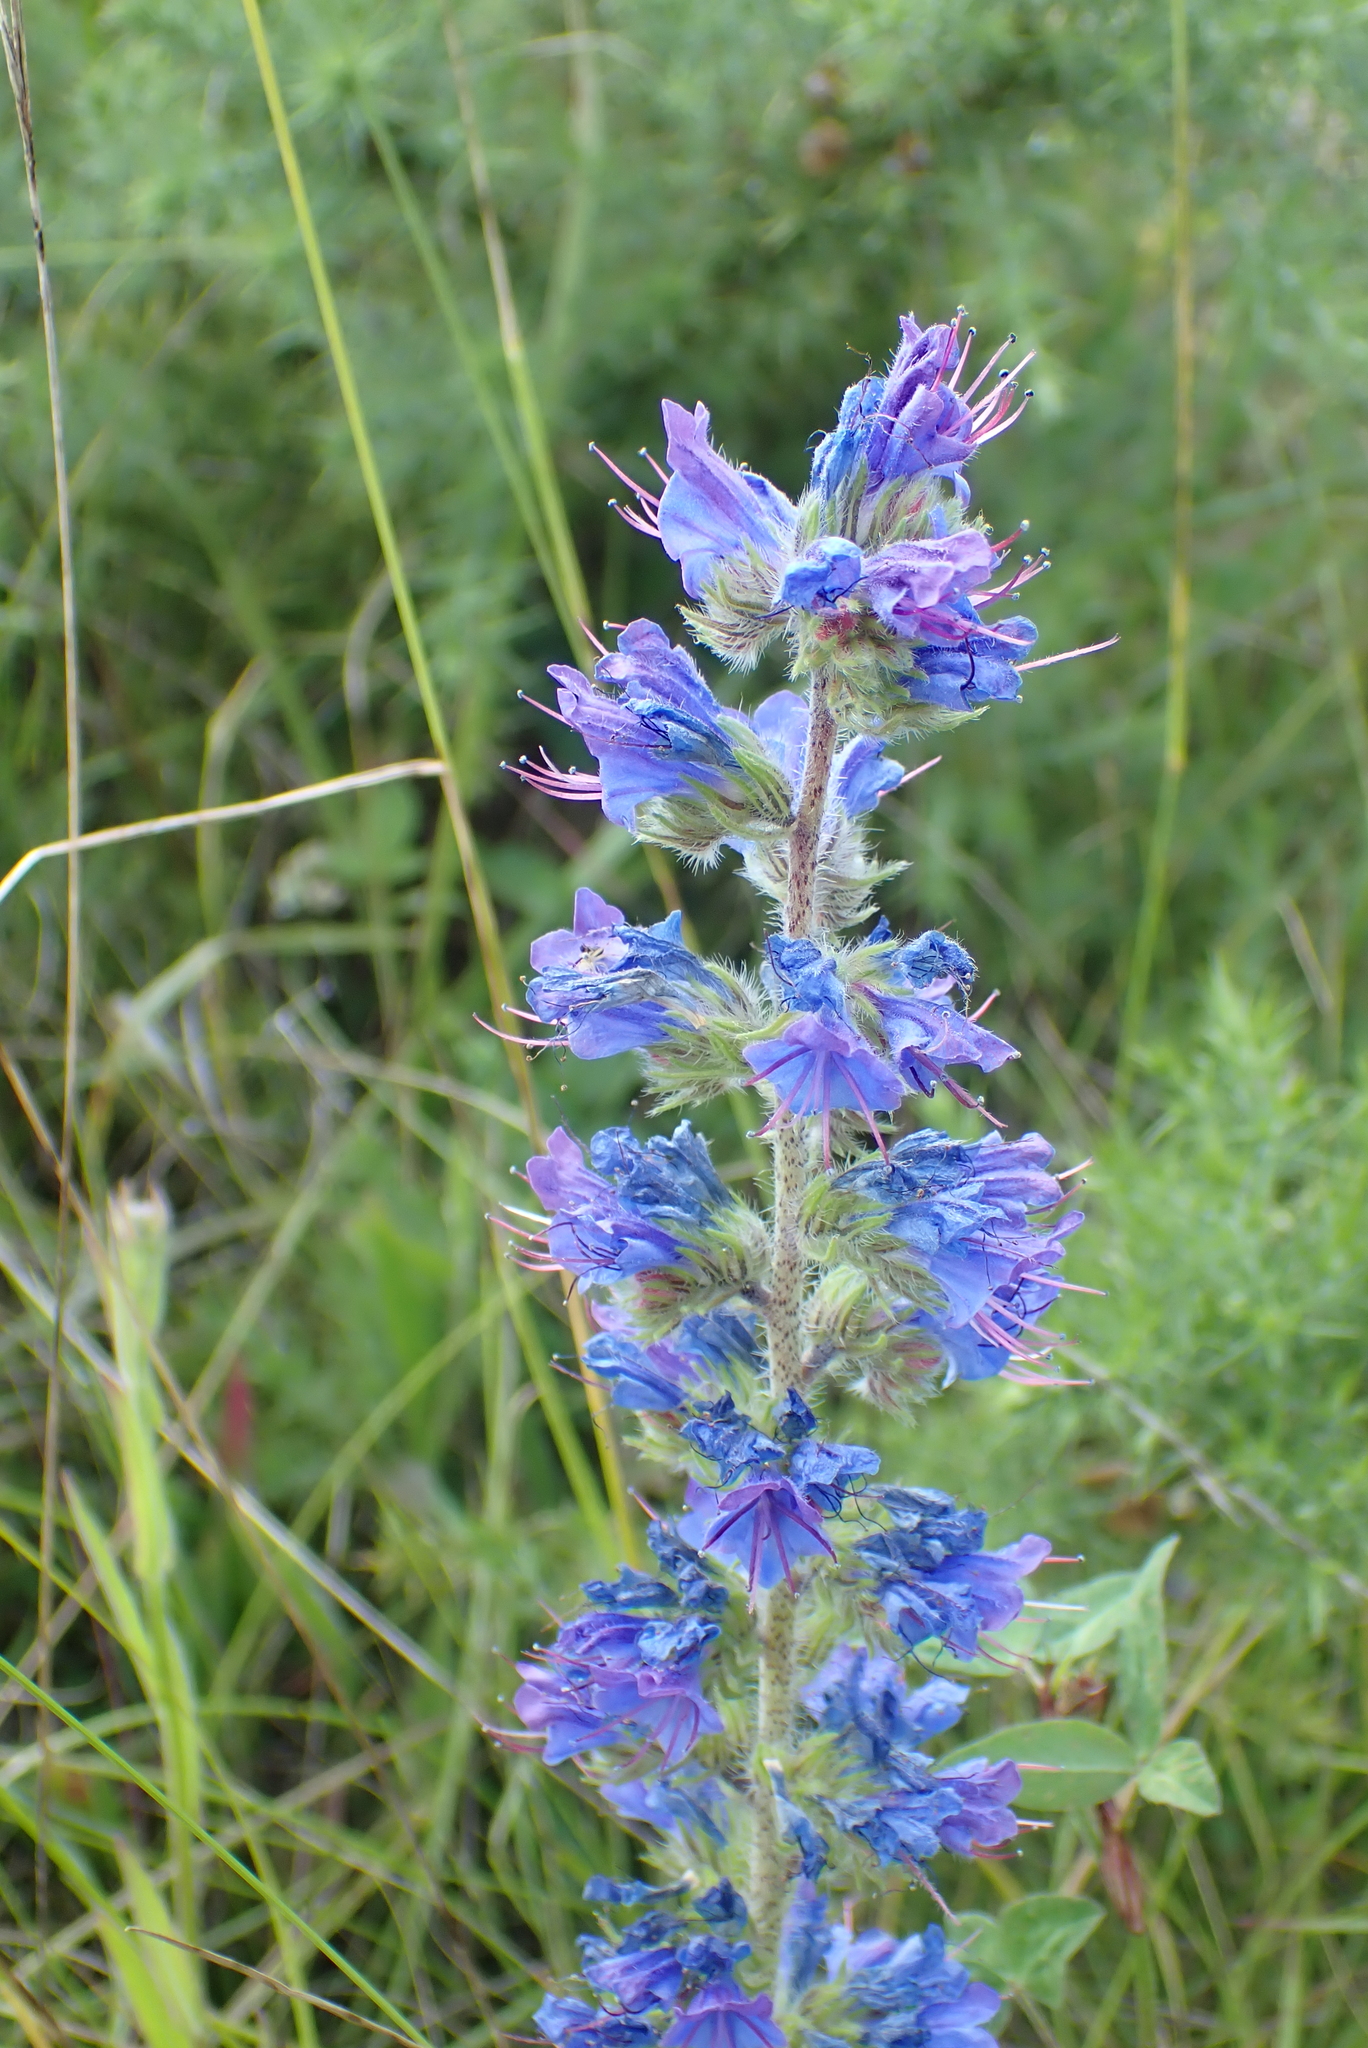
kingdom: Plantae
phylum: Tracheophyta
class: Magnoliopsida
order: Boraginales
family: Boraginaceae
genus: Echium
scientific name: Echium vulgare
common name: Common viper's bugloss
